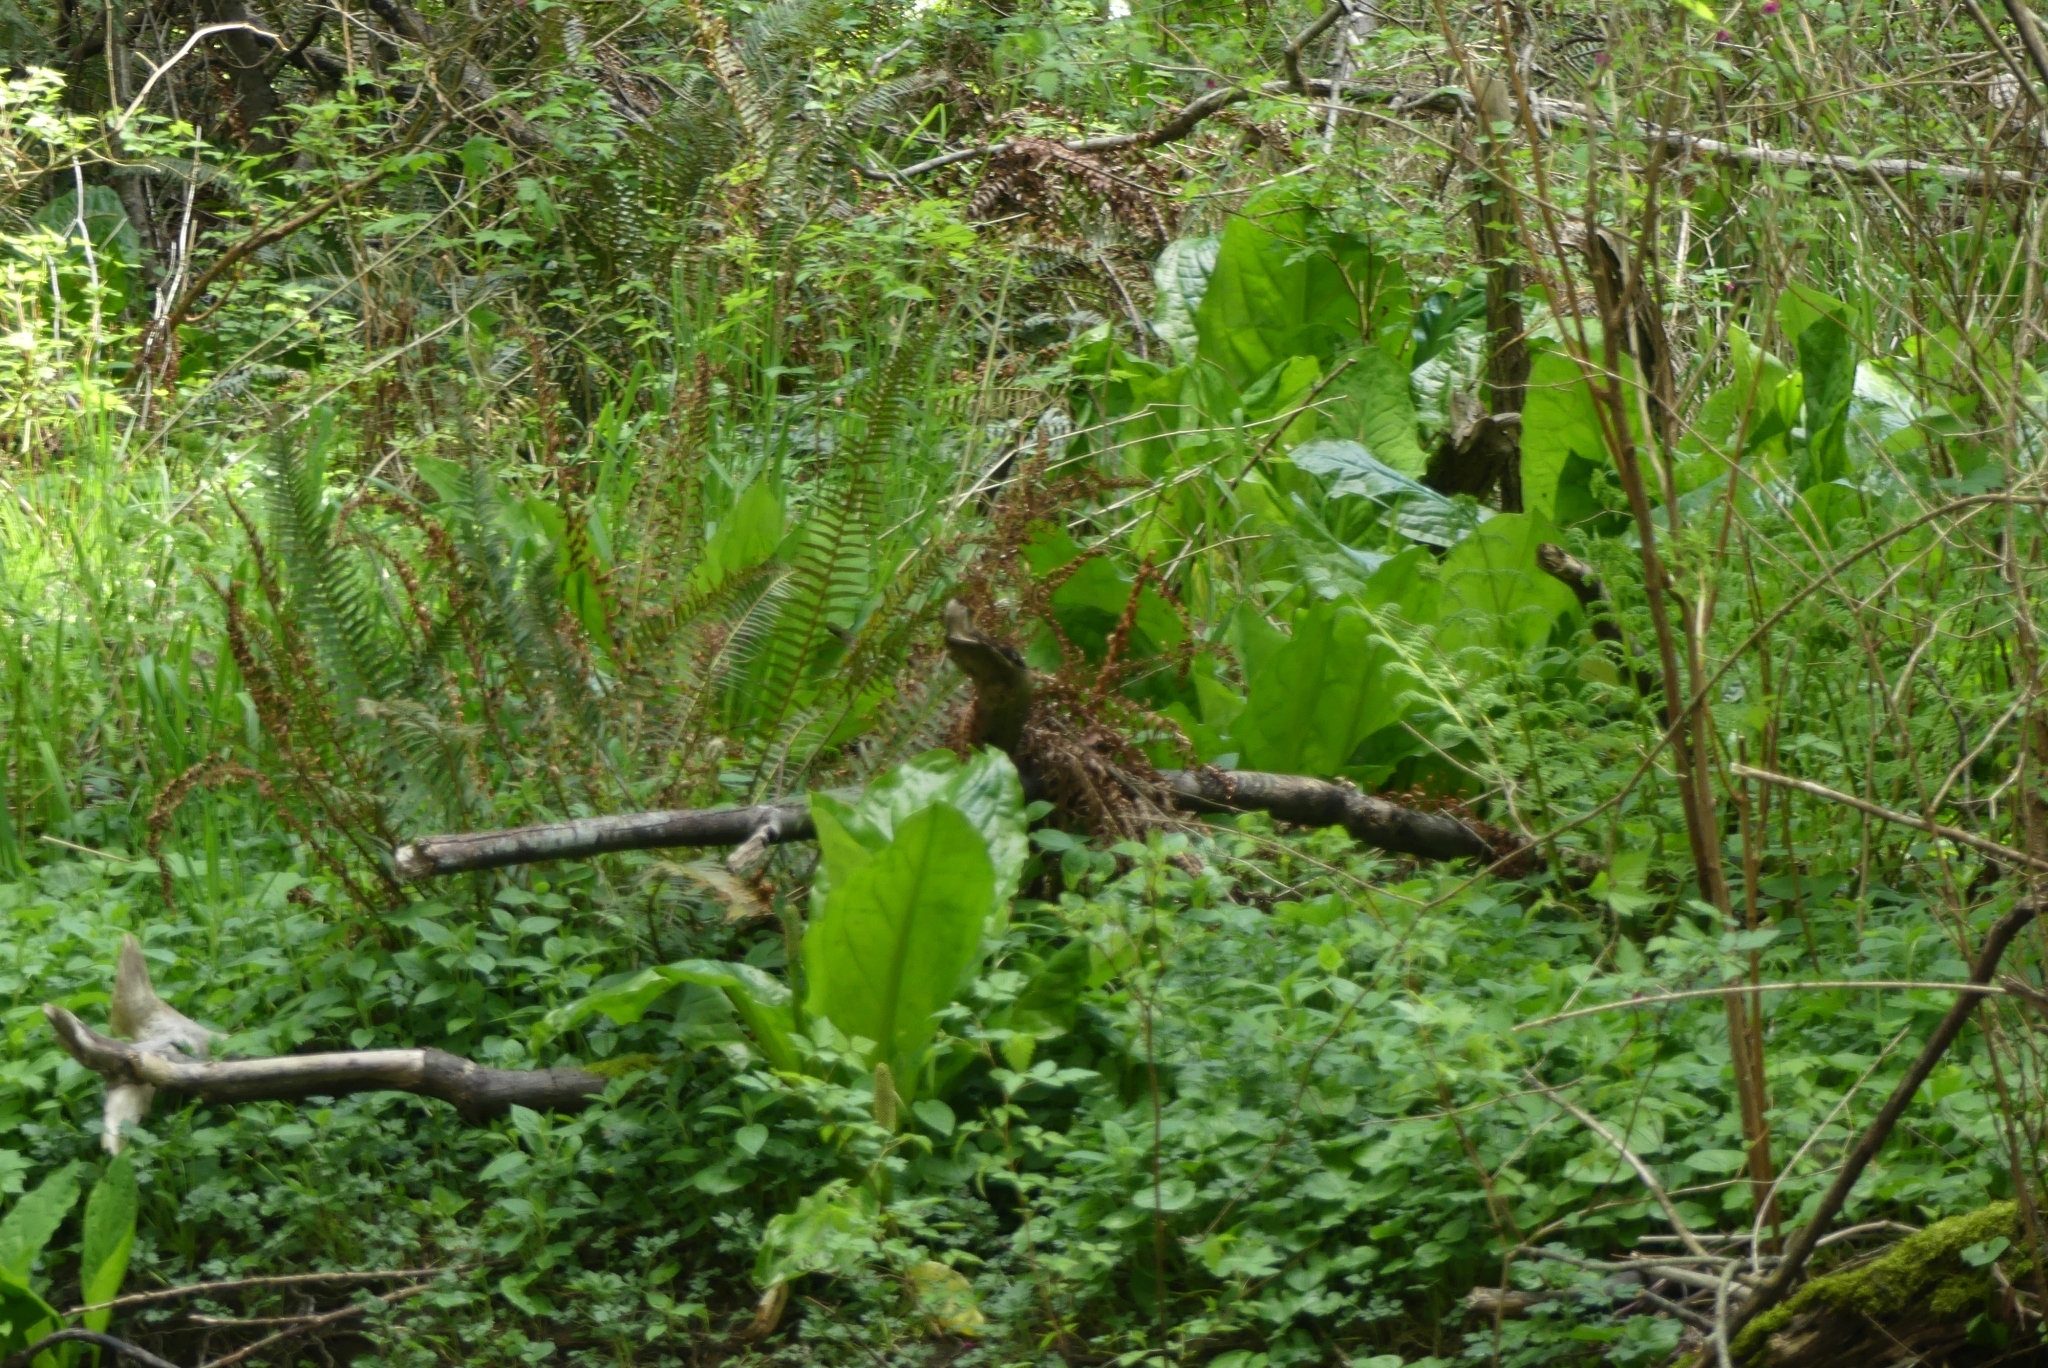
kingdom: Plantae
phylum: Tracheophyta
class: Liliopsida
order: Alismatales
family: Araceae
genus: Lysichiton
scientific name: Lysichiton americanus
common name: American skunk cabbage
